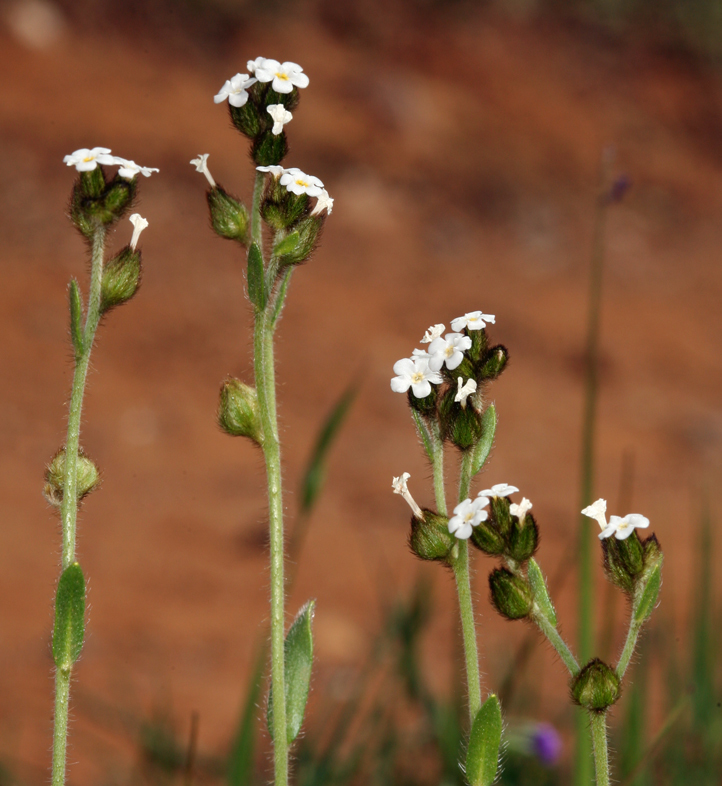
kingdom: Plantae
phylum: Tracheophyta
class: Magnoliopsida
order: Boraginales
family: Boraginaceae
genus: Plagiobothrys
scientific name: Plagiobothrys nothofulvus
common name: Popcorn-flower
